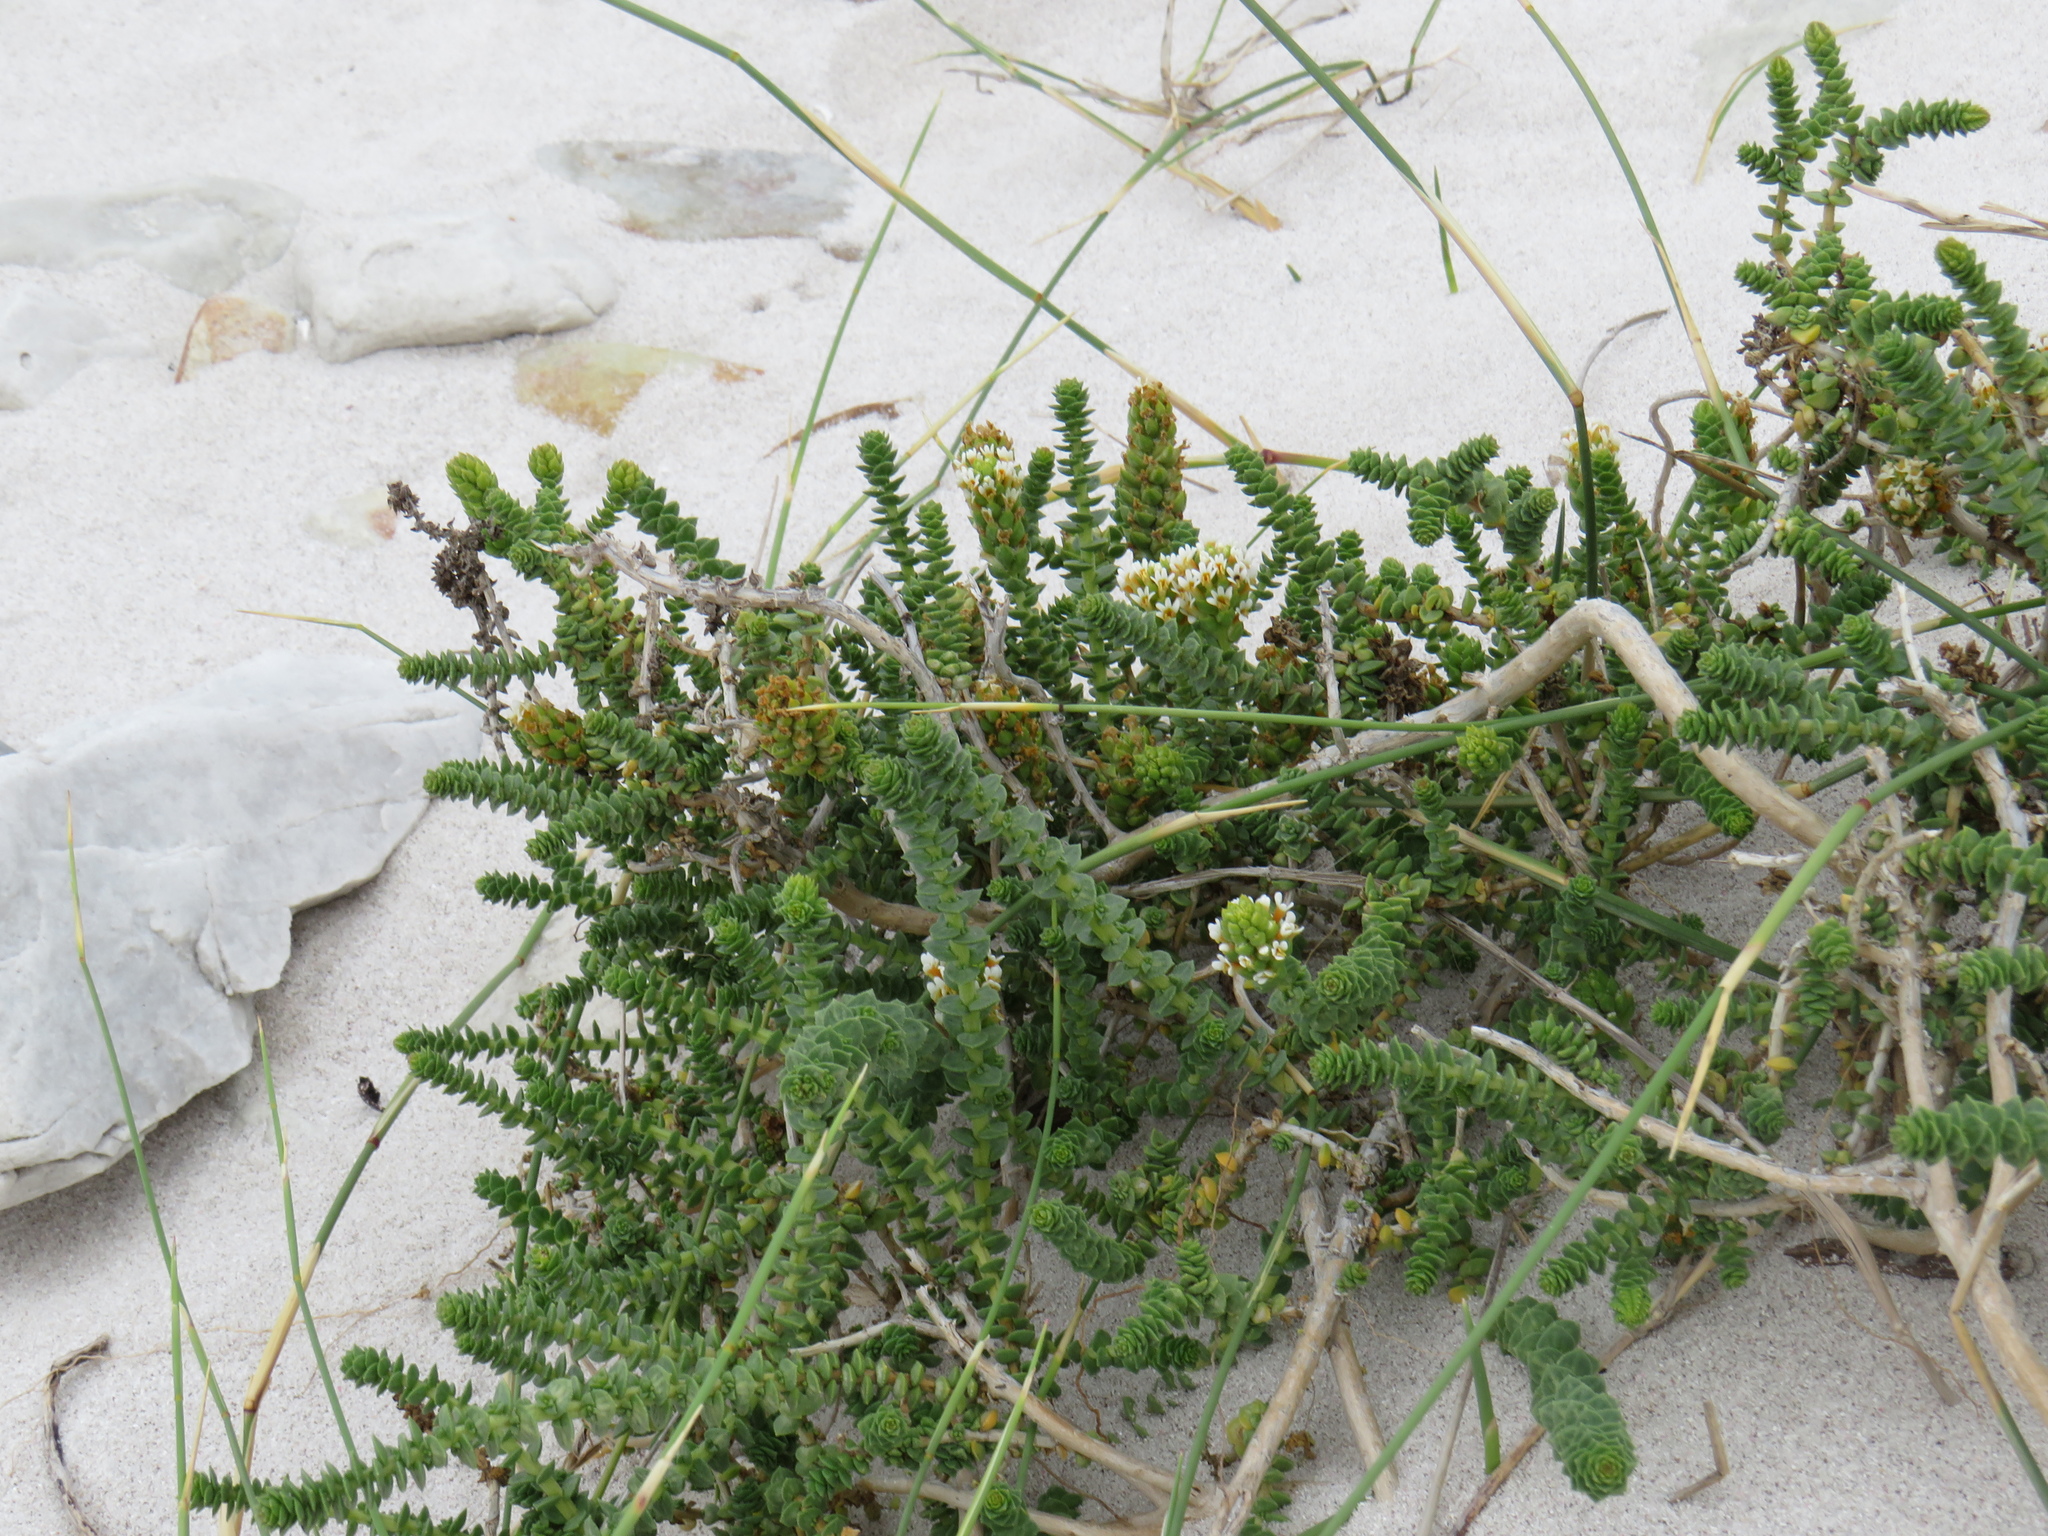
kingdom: Plantae
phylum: Tracheophyta
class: Magnoliopsida
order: Lamiales
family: Scrophulariaceae
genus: Hebenstretia
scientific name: Hebenstretia cordata
